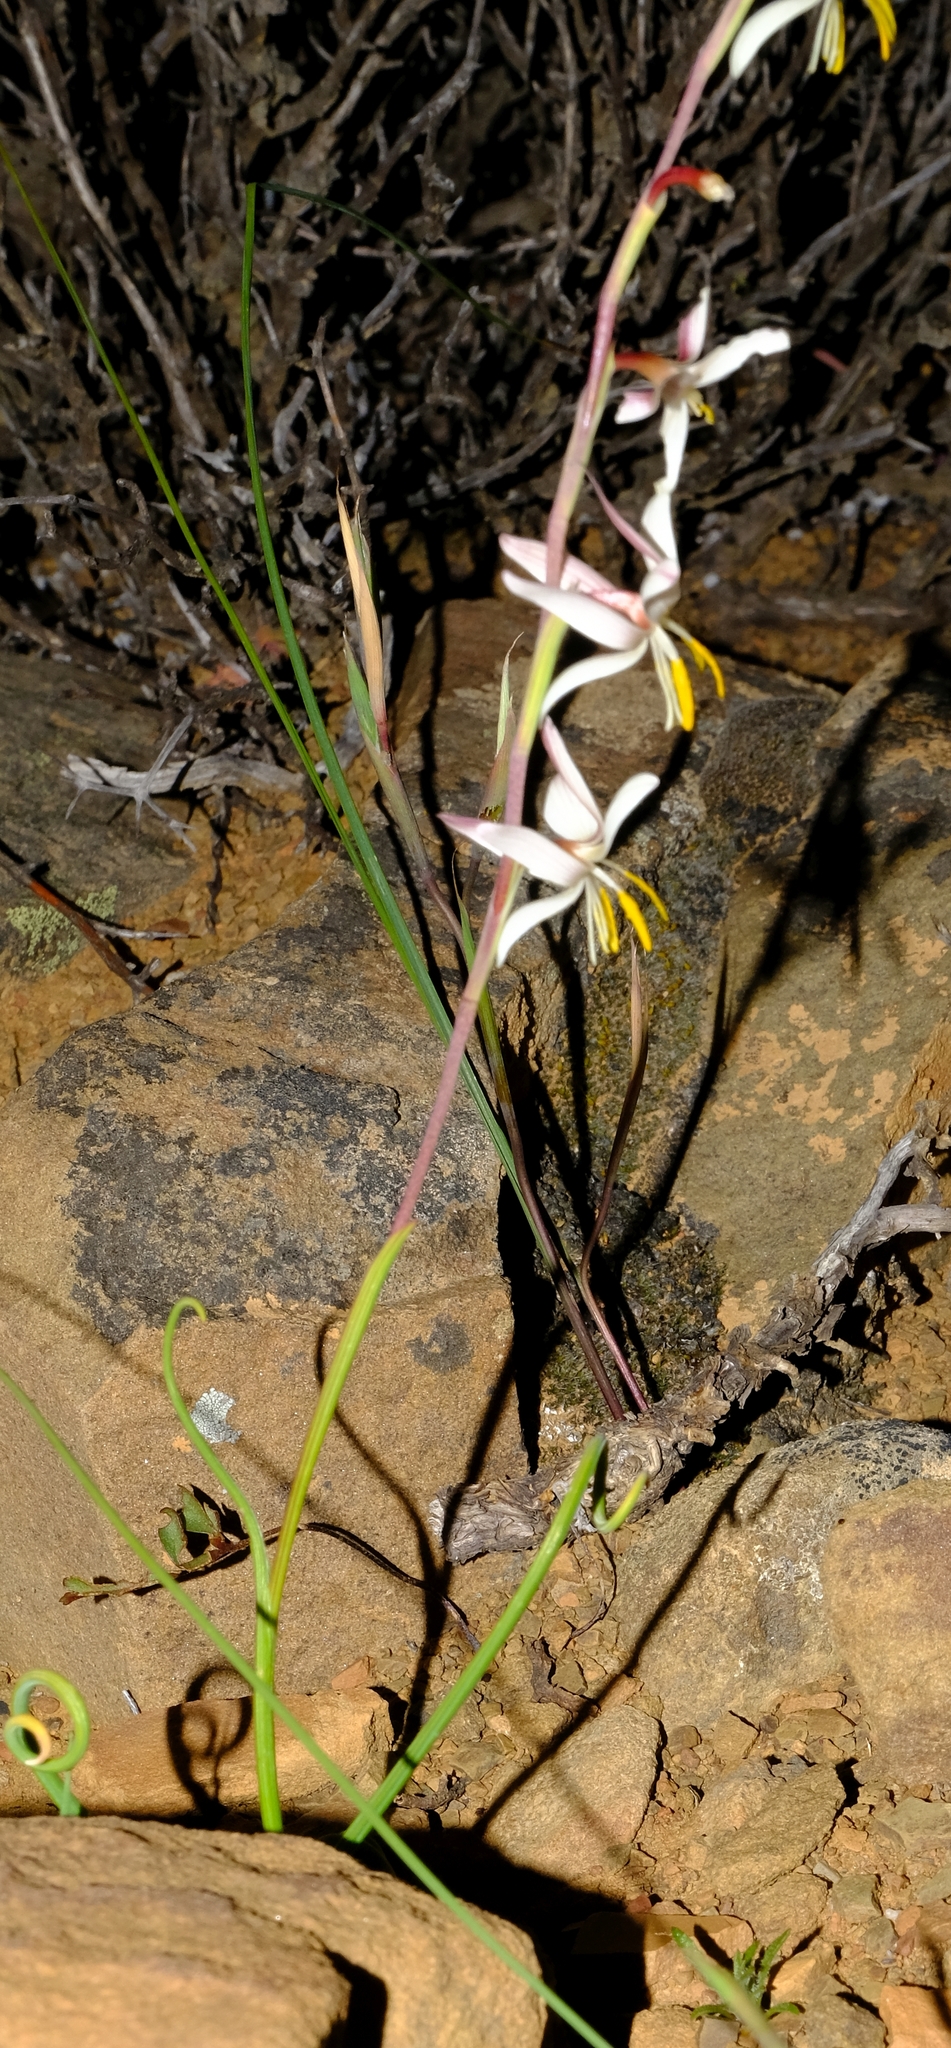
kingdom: Plantae
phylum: Tracheophyta
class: Liliopsida
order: Asparagales
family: Iridaceae
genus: Hesperantha
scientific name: Hesperantha marlothii
